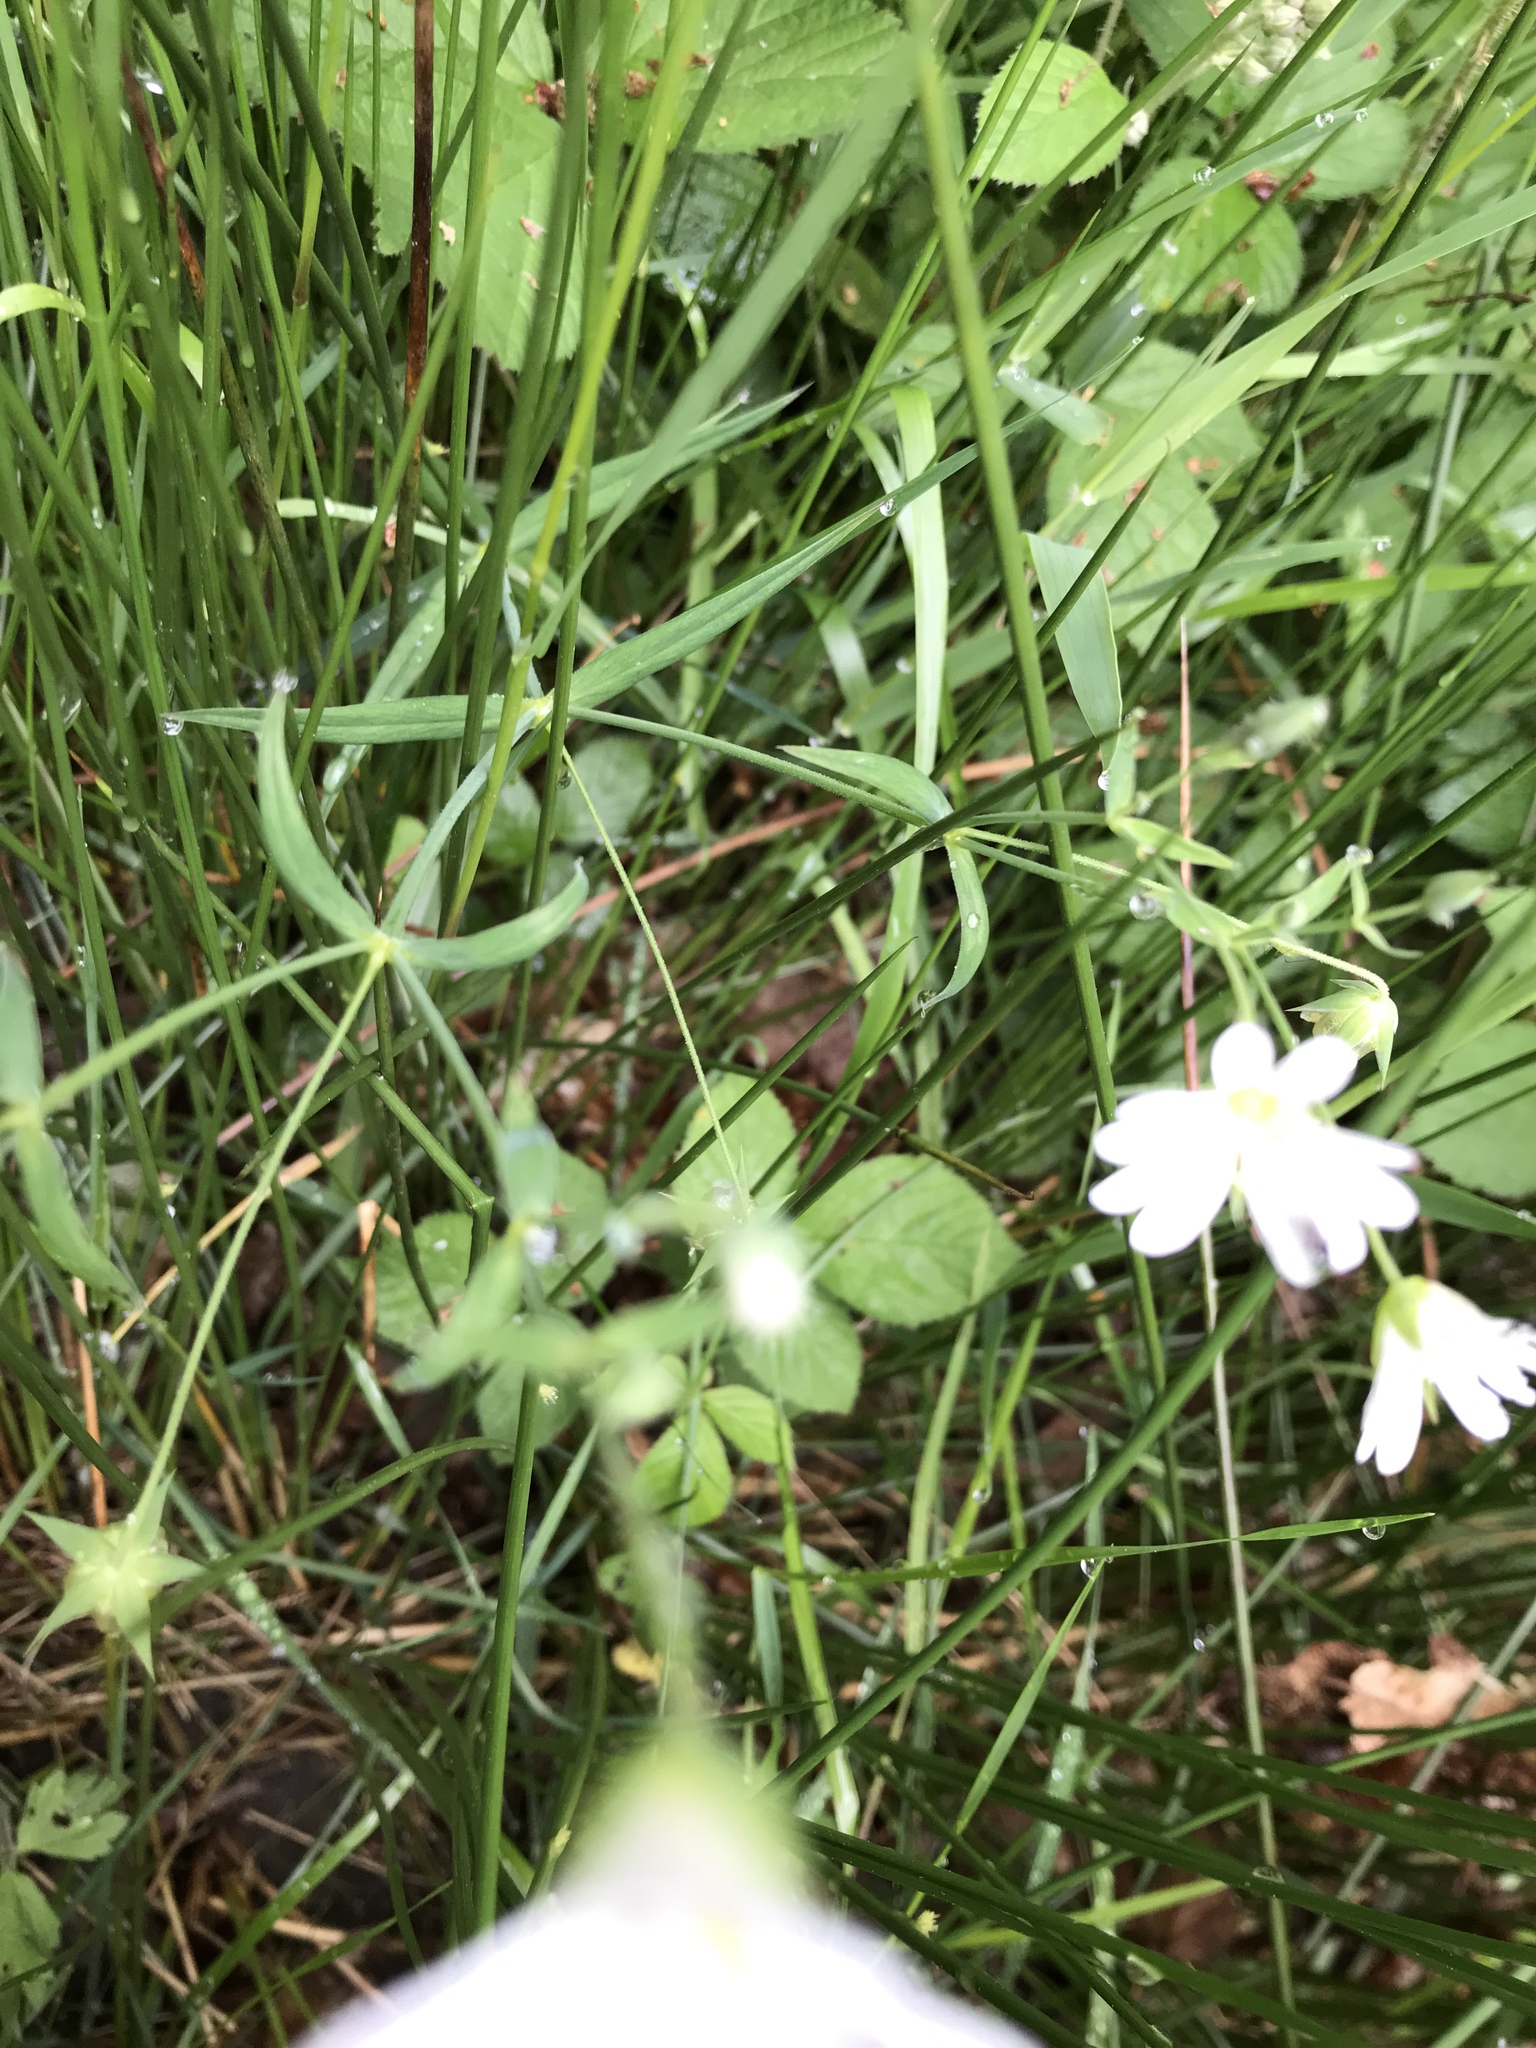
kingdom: Plantae
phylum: Tracheophyta
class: Magnoliopsida
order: Caryophyllales
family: Caryophyllaceae
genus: Rabelera
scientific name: Rabelera holostea
